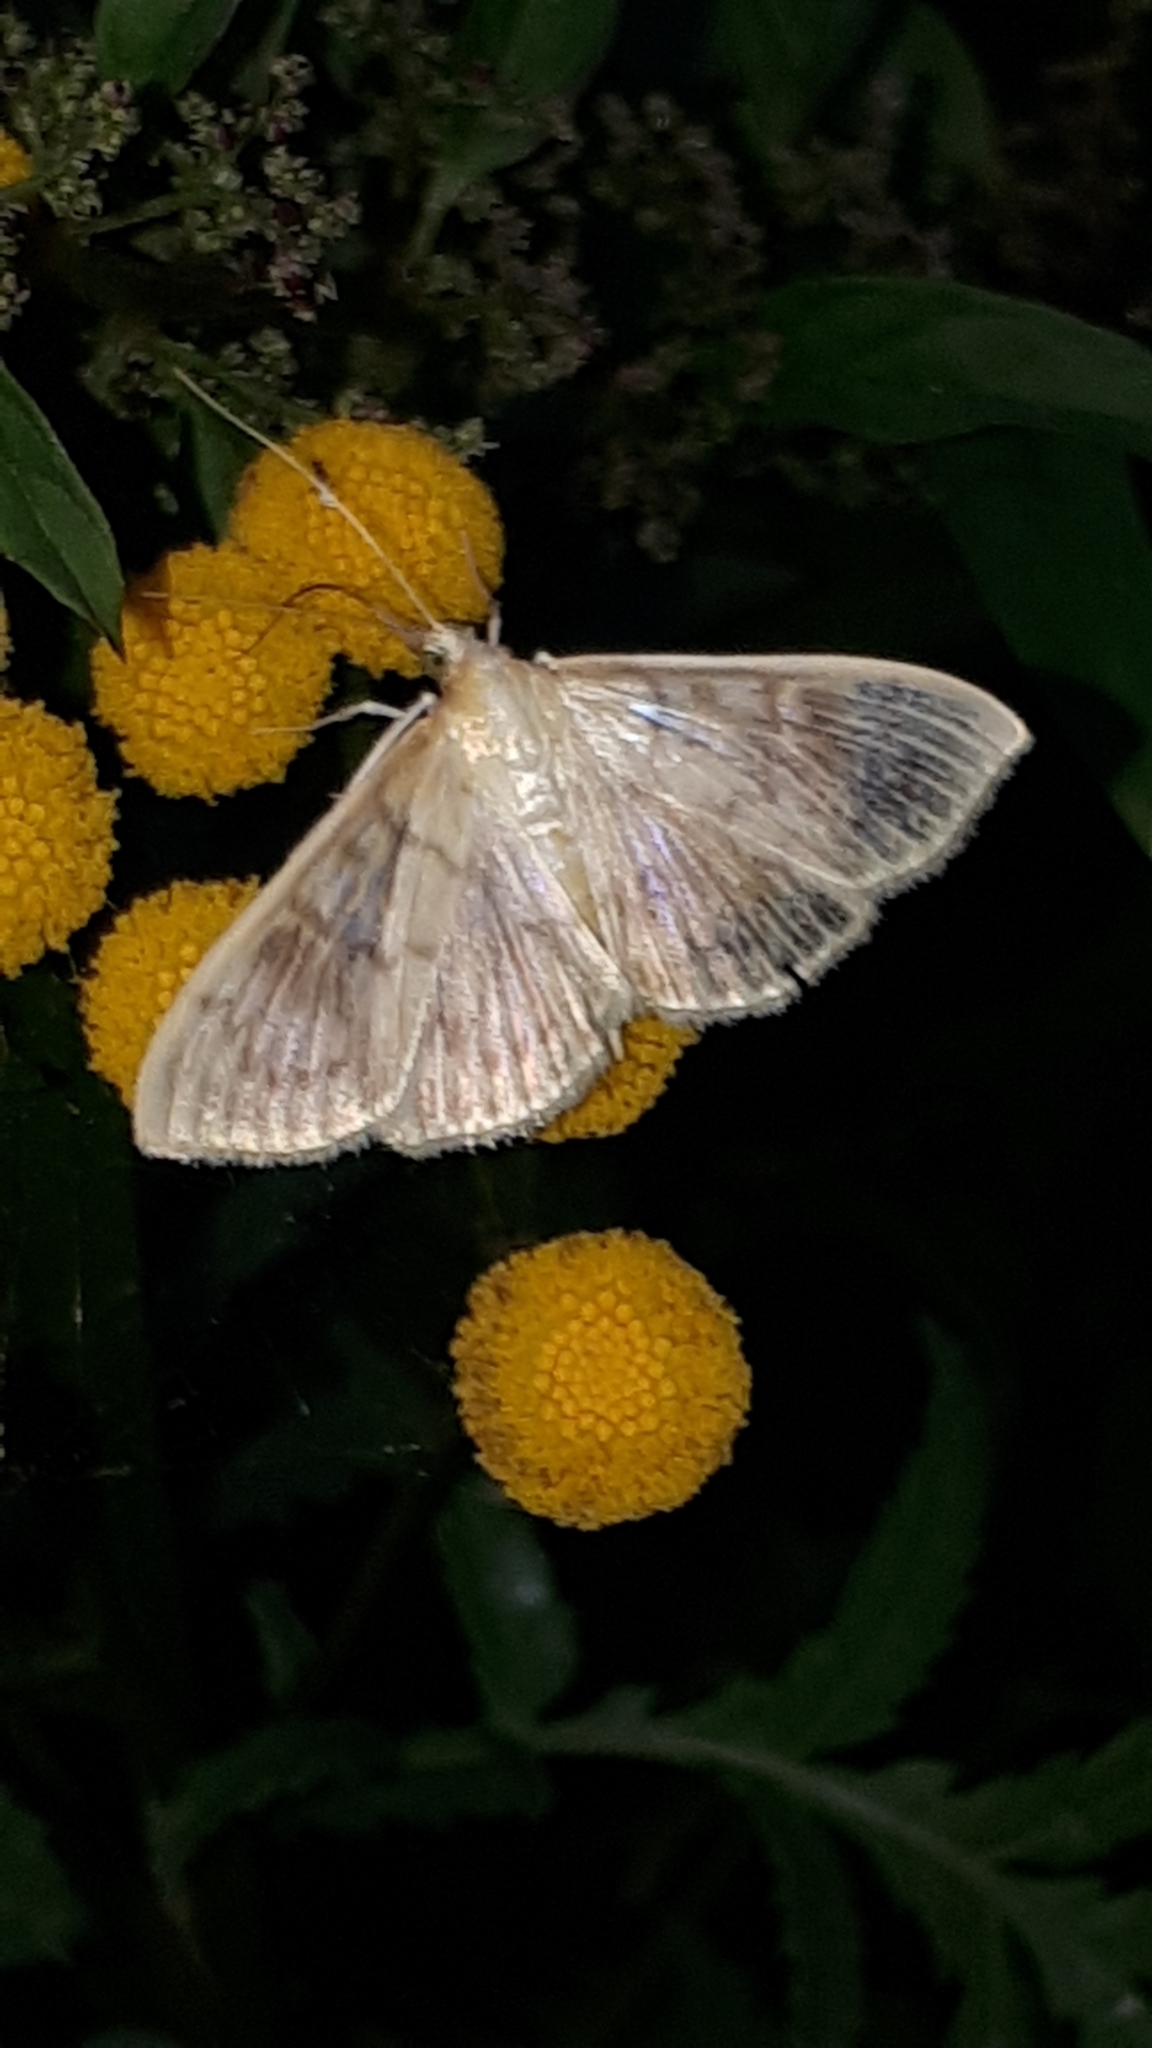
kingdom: Animalia
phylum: Arthropoda
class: Insecta
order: Lepidoptera
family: Crambidae
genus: Patania
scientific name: Patania ruralis
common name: Mother of pearl
